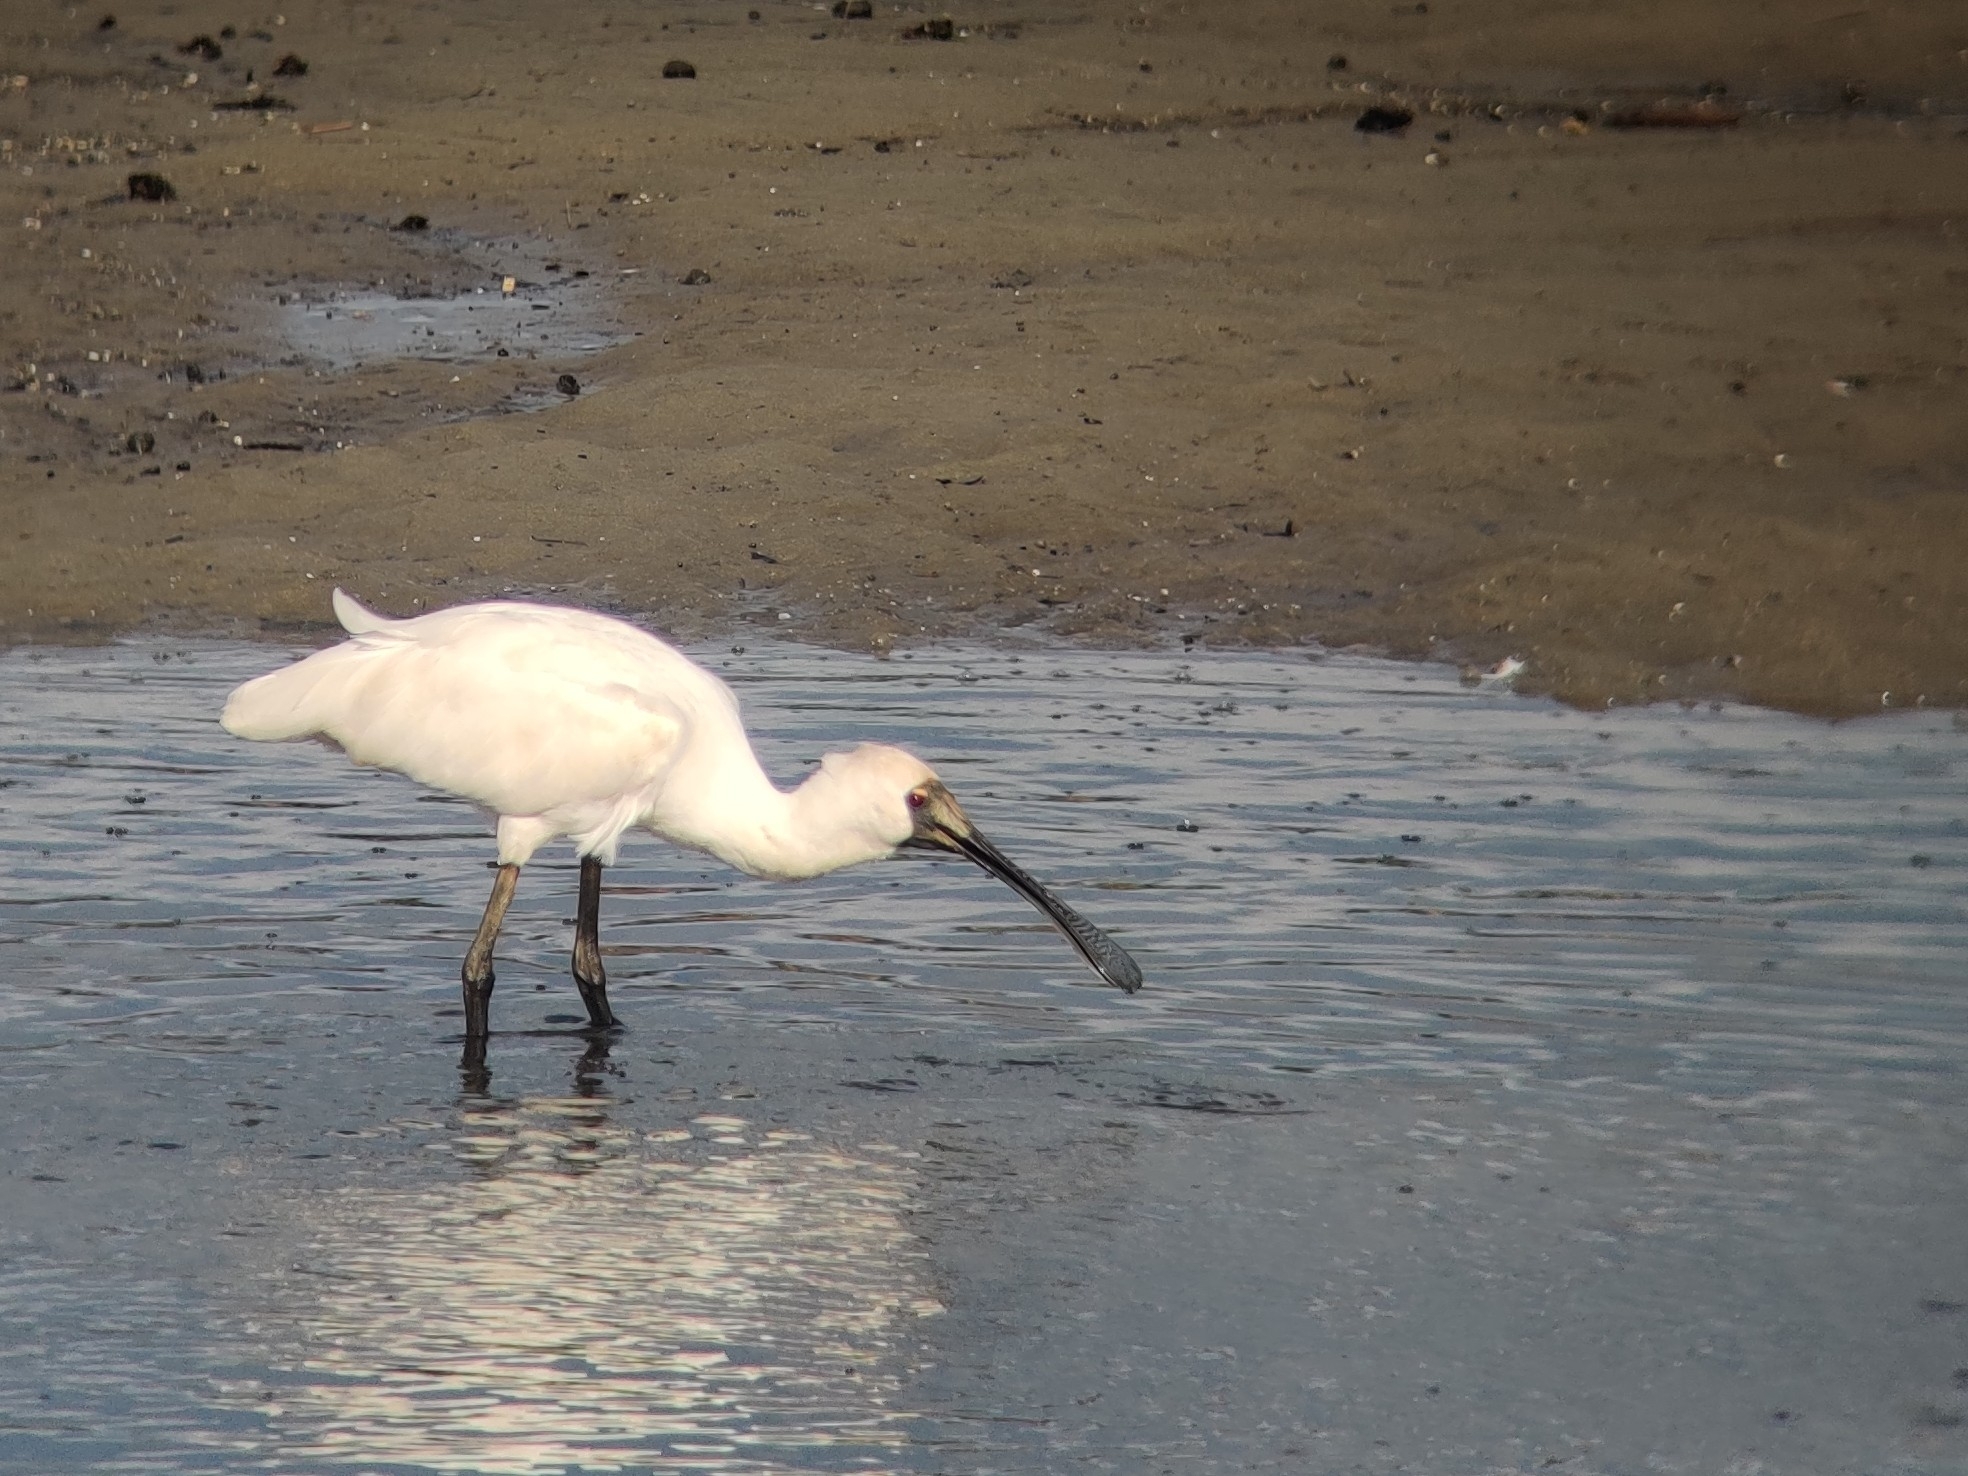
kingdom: Animalia
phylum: Chordata
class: Aves
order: Pelecaniformes
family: Threskiornithidae
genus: Platalea
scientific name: Platalea regia
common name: Royal spoonbill
